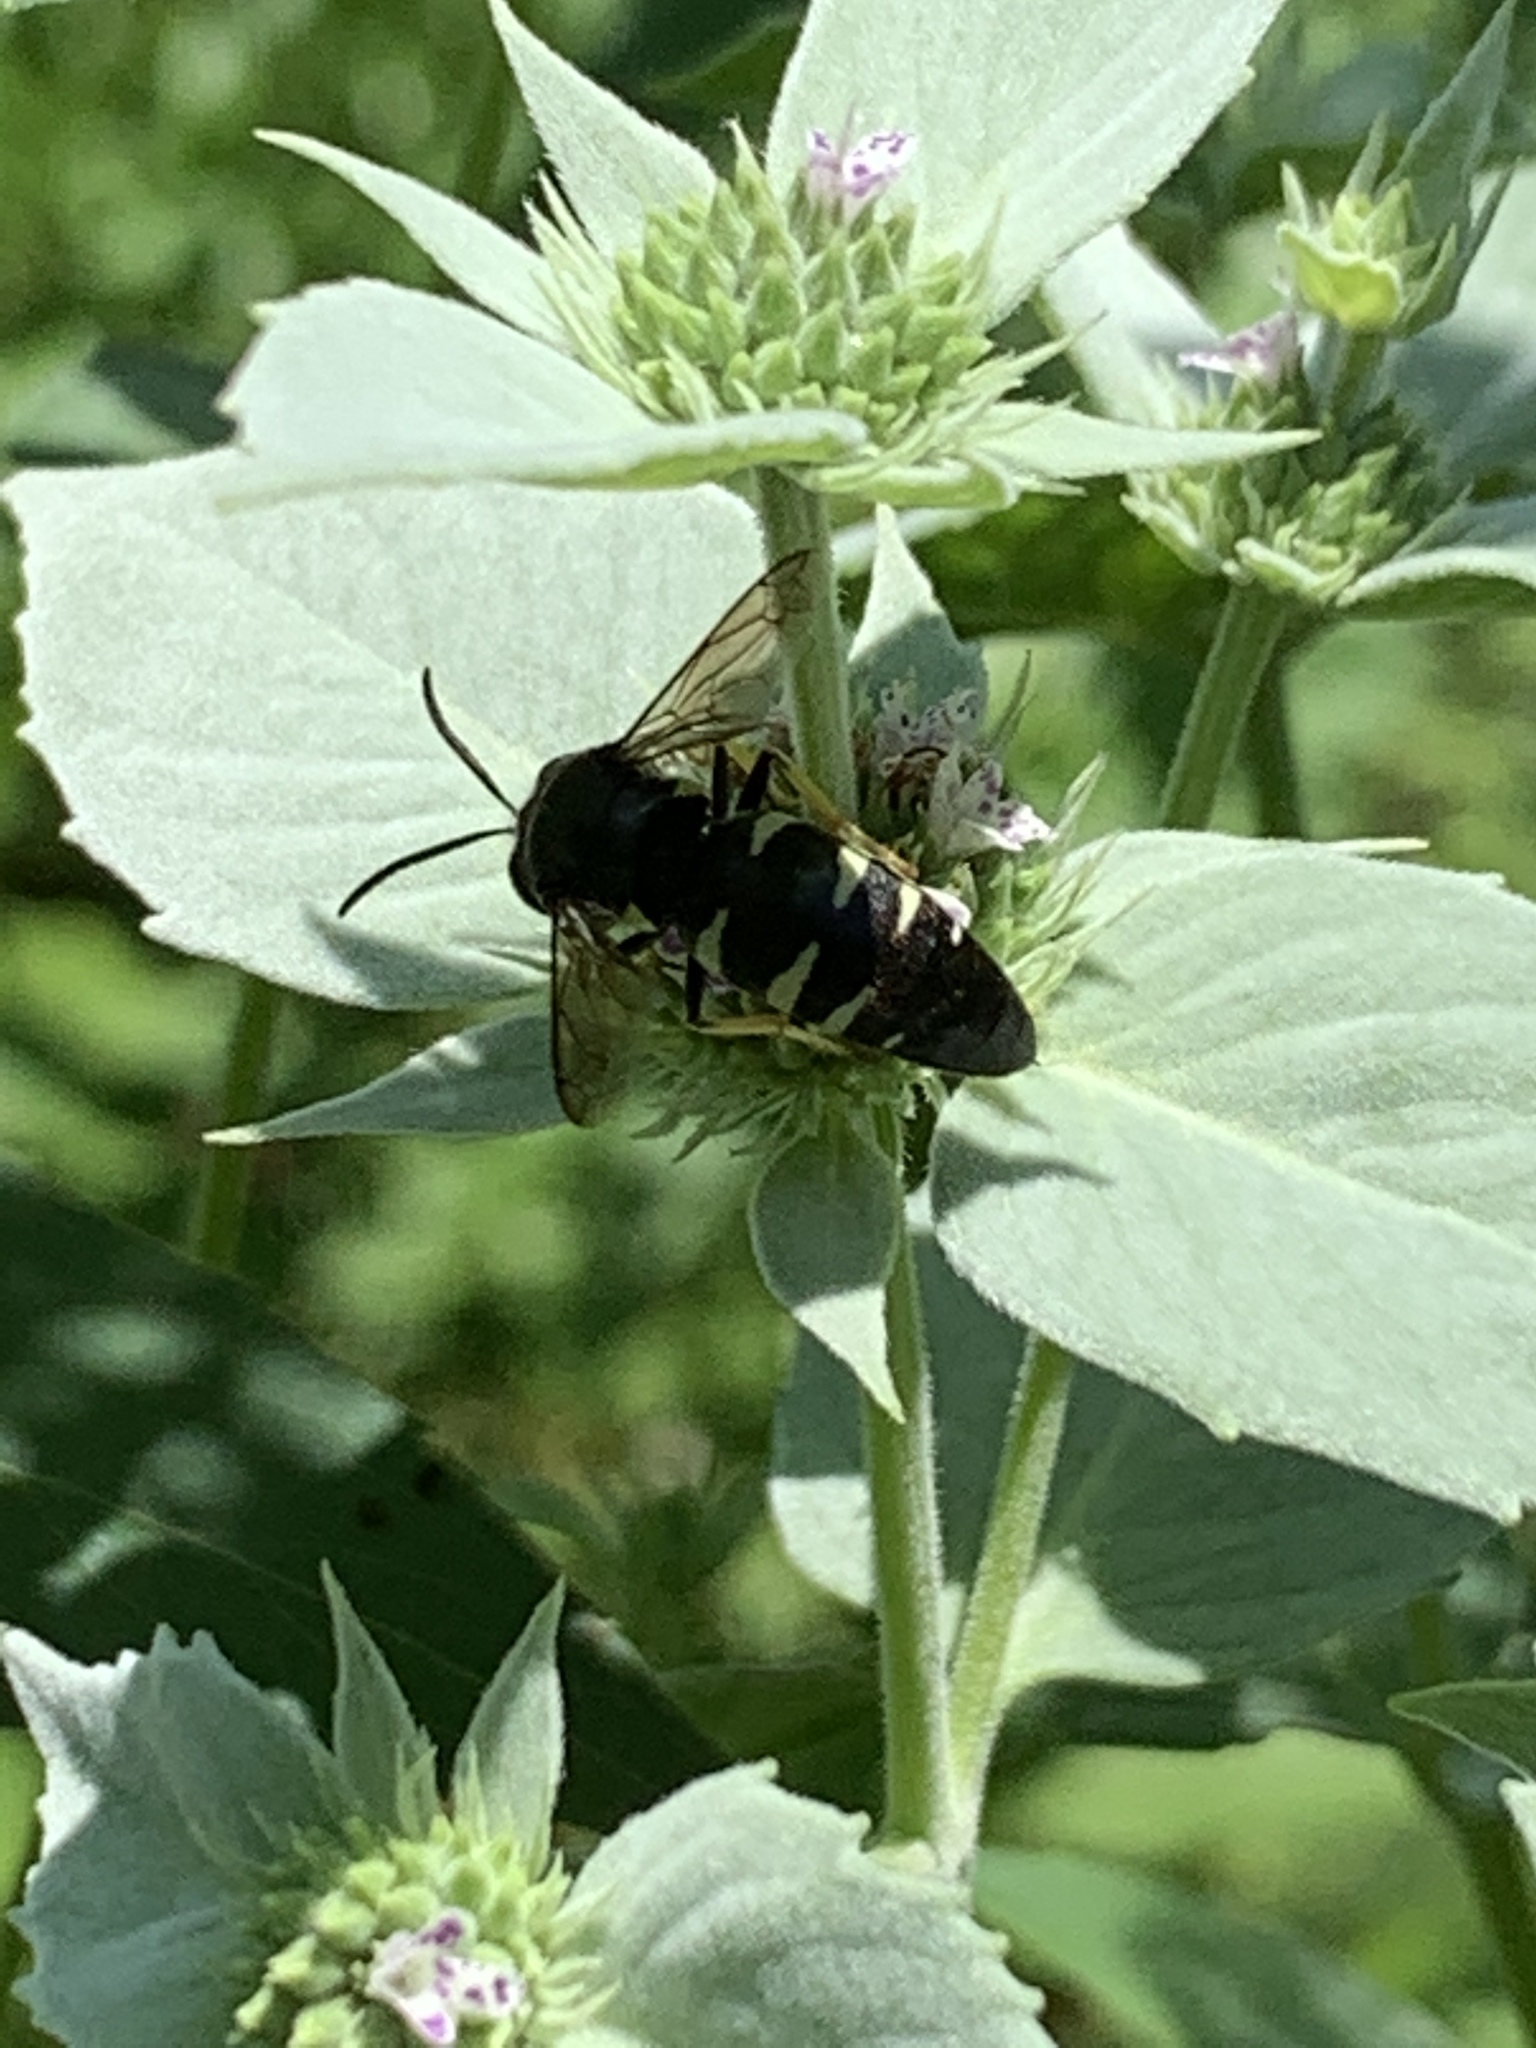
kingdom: Animalia
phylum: Arthropoda
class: Insecta
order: Hymenoptera
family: Crabronidae
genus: Bicyrtes
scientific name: Bicyrtes quadrifasciatus
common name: Four-banded stink bug hunter wasp
